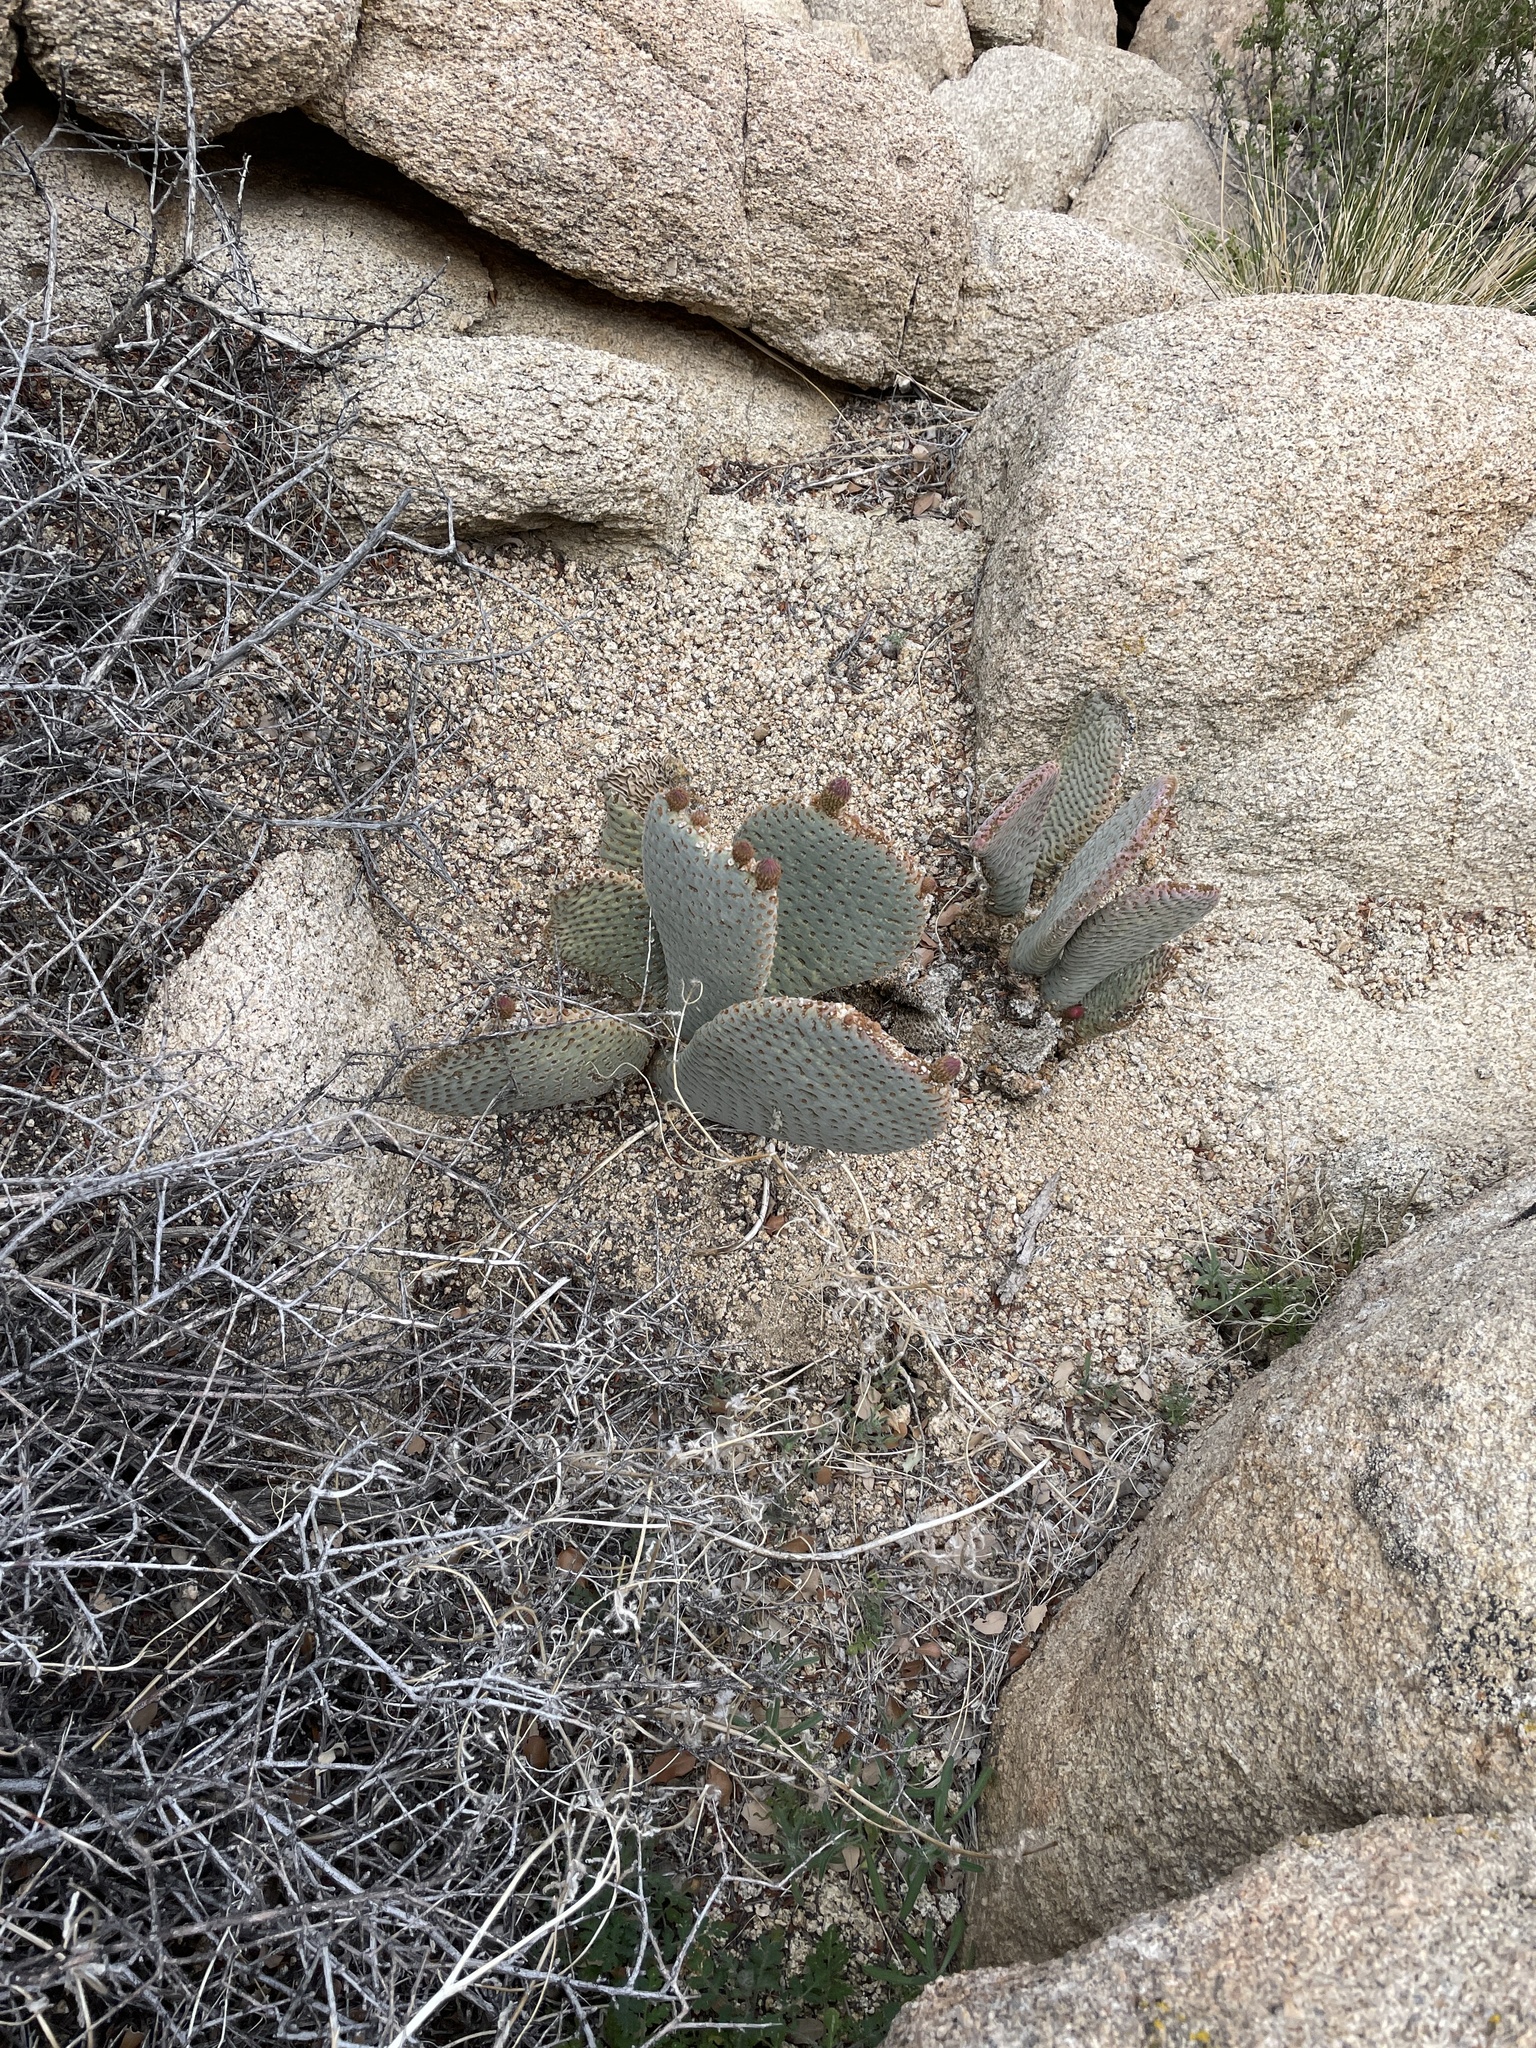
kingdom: Plantae
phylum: Tracheophyta
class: Magnoliopsida
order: Caryophyllales
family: Cactaceae
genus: Opuntia
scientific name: Opuntia basilaris
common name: Beavertail prickly-pear
